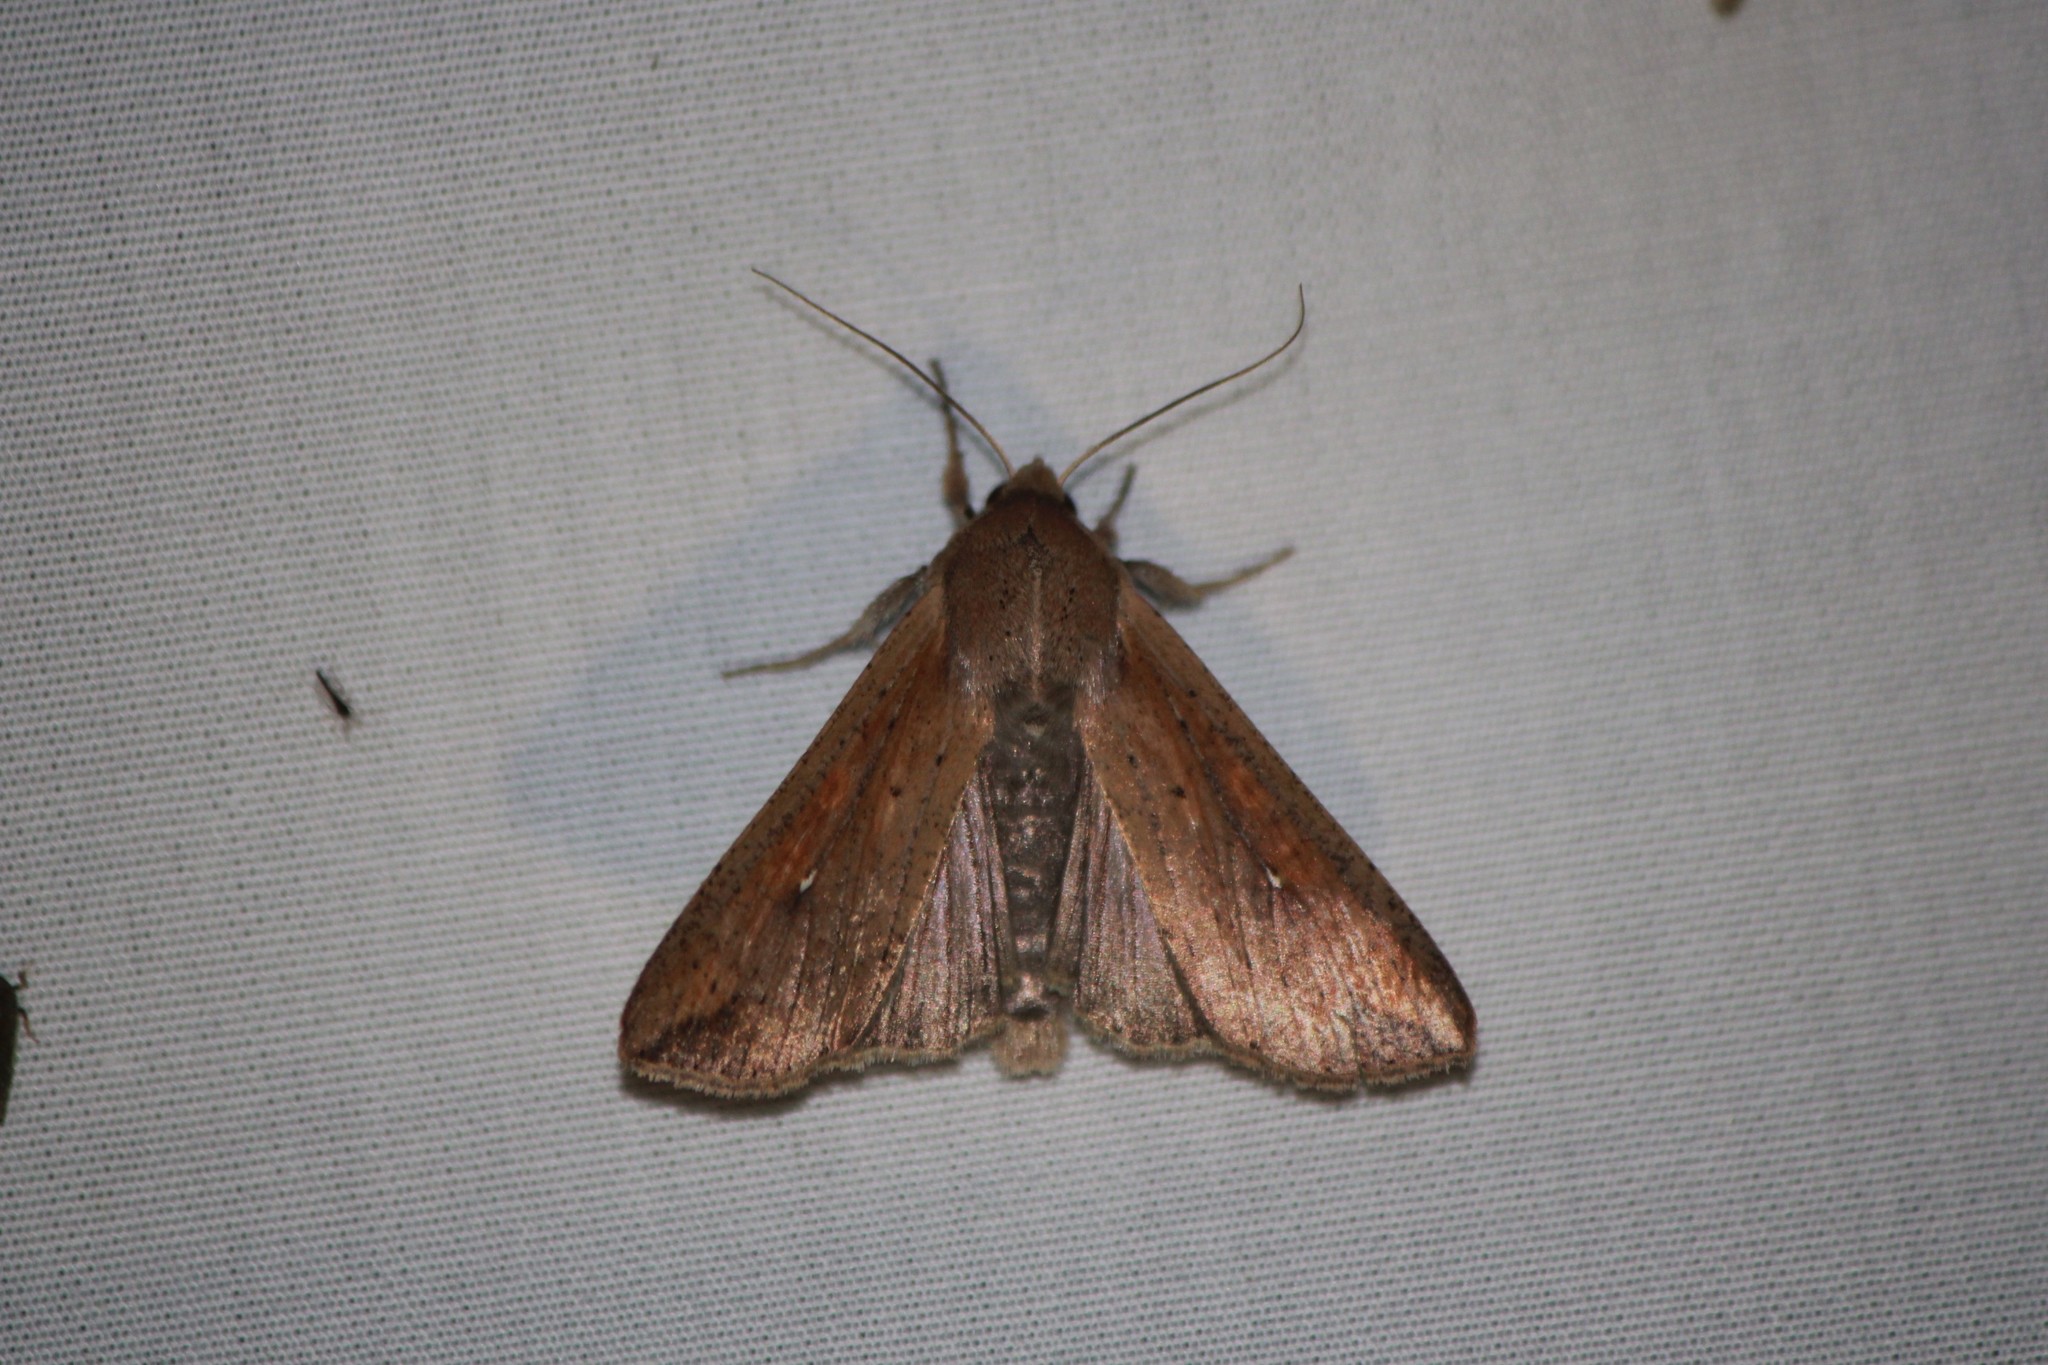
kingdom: Animalia
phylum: Arthropoda
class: Insecta
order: Lepidoptera
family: Noctuidae
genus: Mythimna
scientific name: Mythimna unipuncta
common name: White-speck
